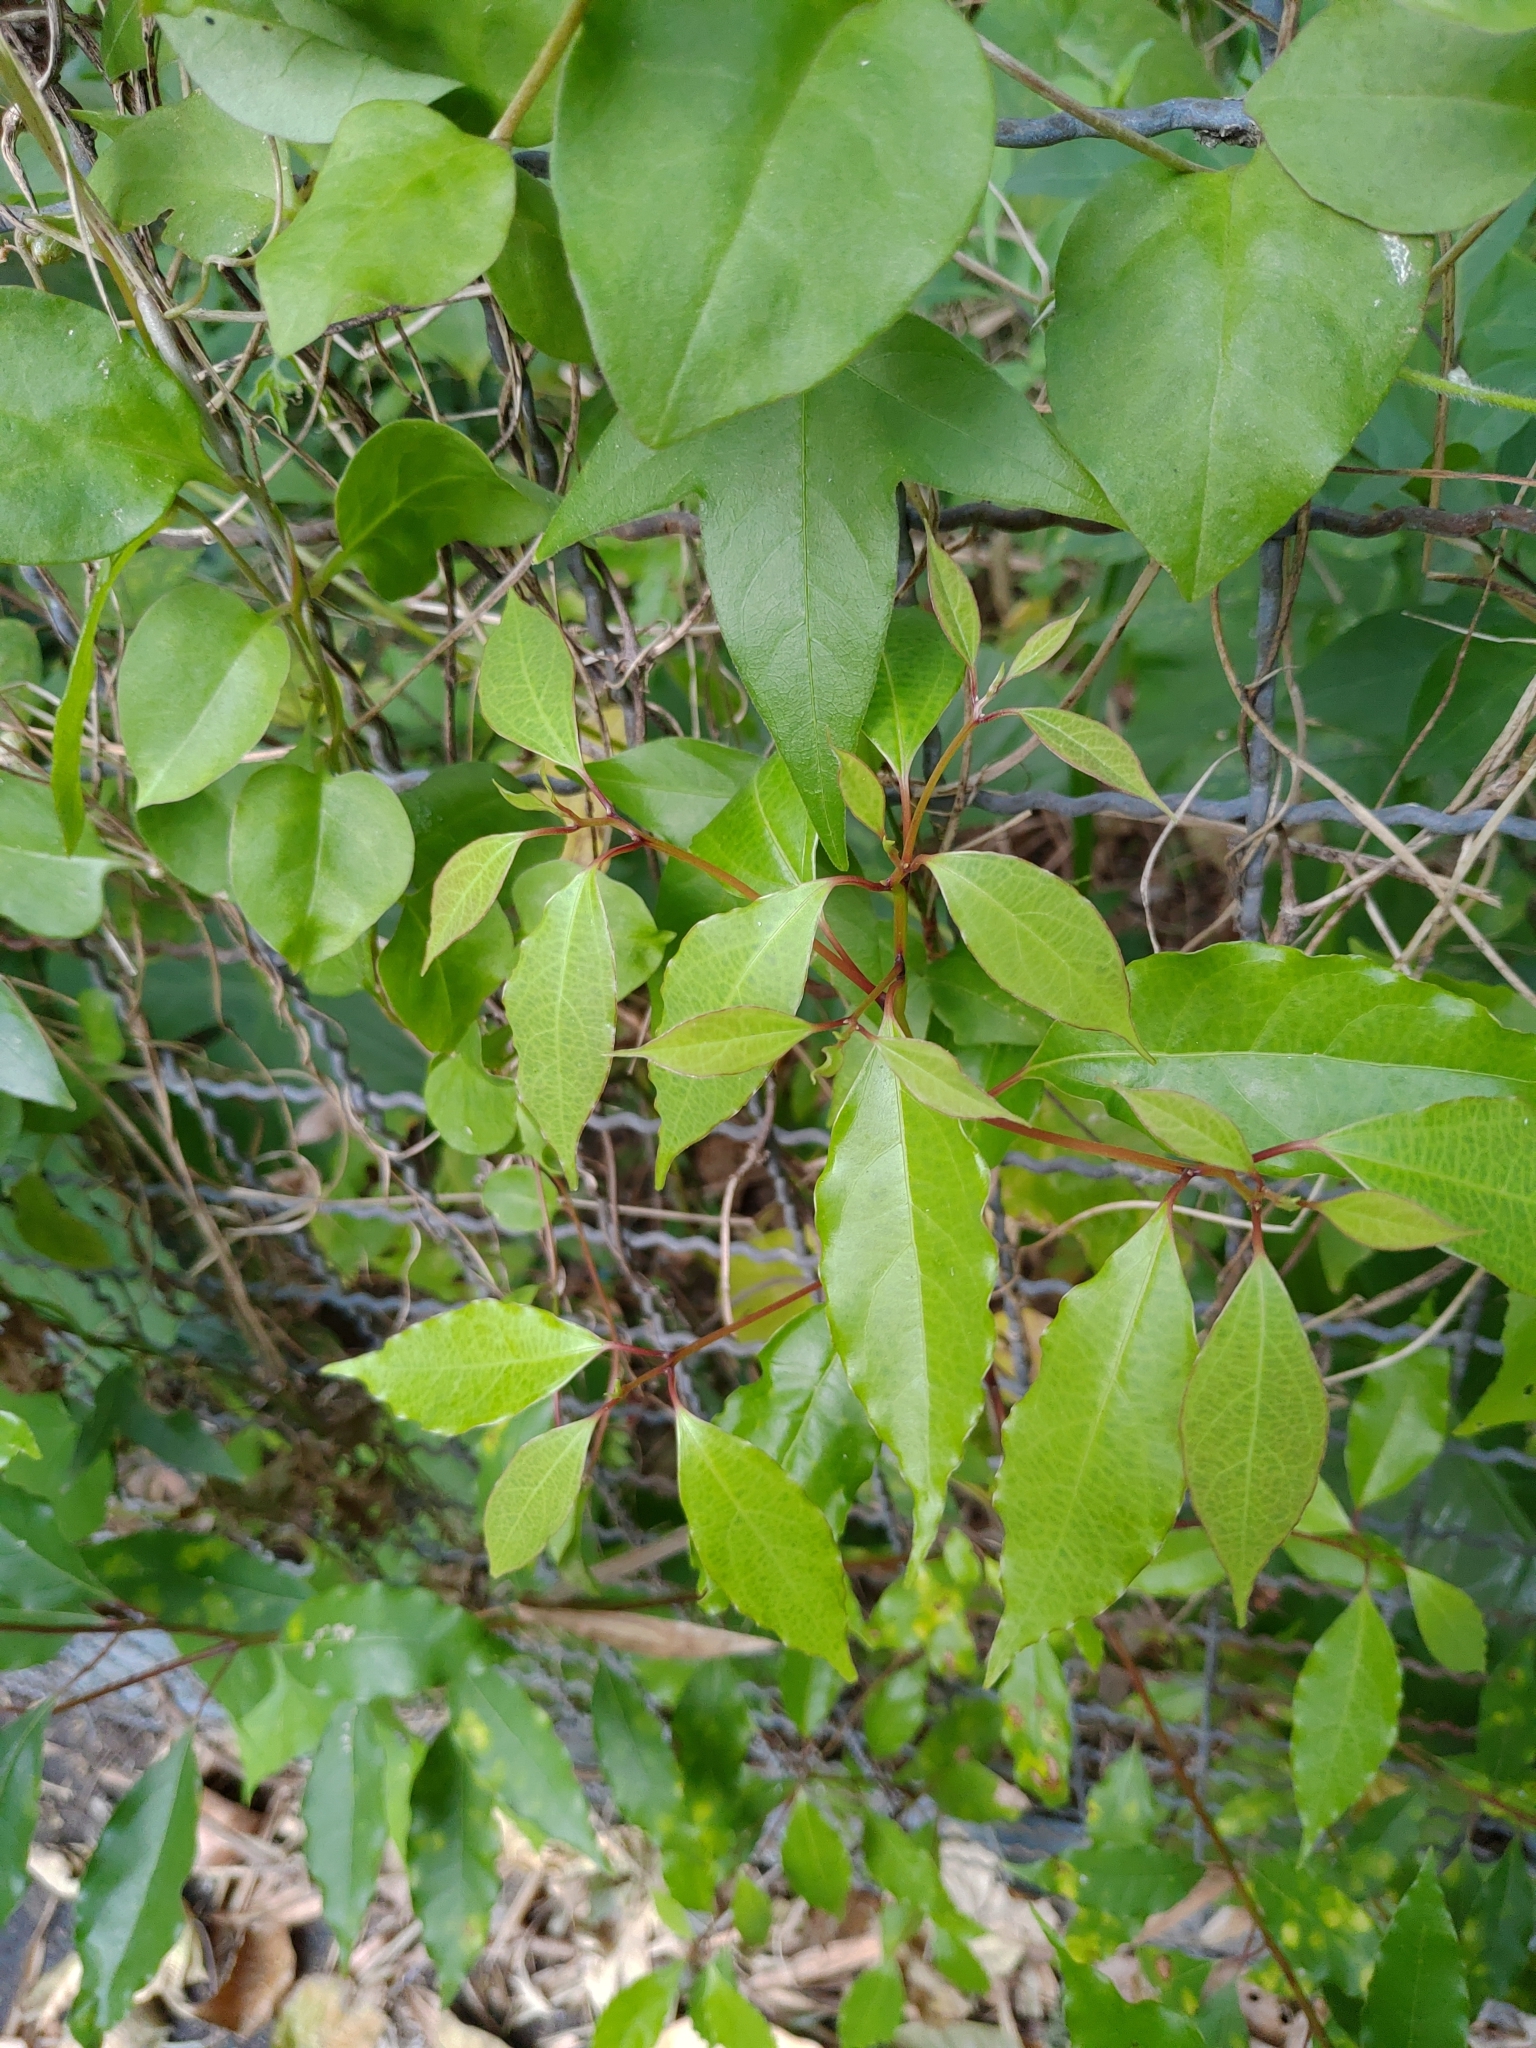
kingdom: Plantae
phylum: Tracheophyta
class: Magnoliopsida
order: Laurales
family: Lauraceae
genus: Cinnamomum
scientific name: Cinnamomum camphora
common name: Camphortree
